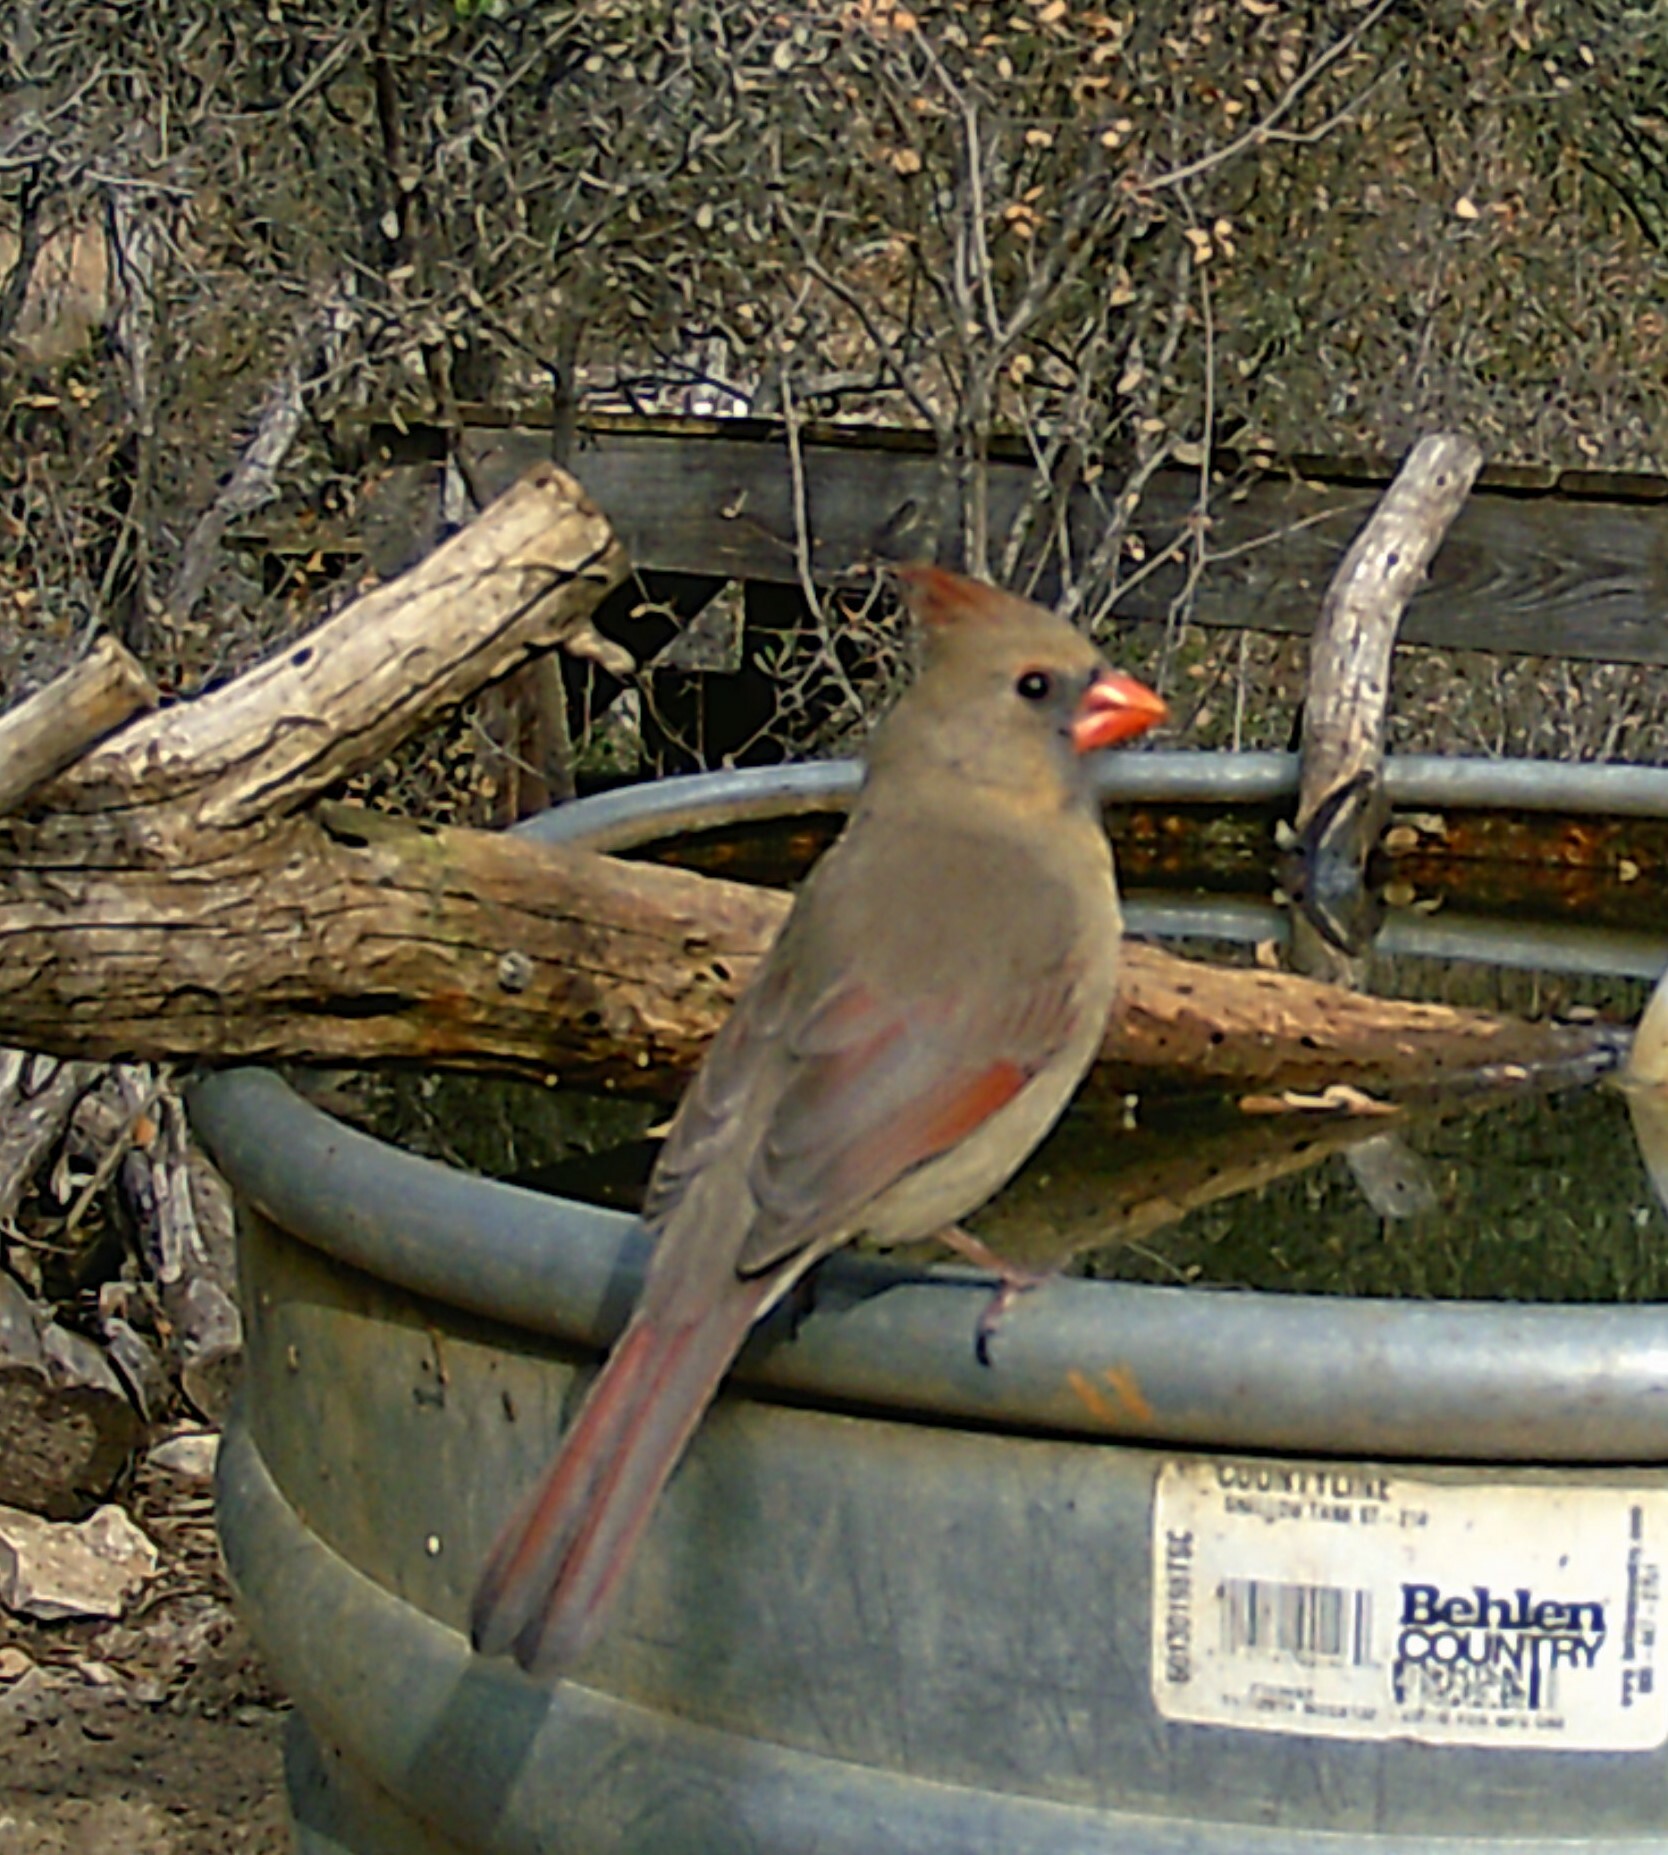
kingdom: Animalia
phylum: Chordata
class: Aves
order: Passeriformes
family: Cardinalidae
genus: Cardinalis
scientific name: Cardinalis cardinalis
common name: Northern cardinal
